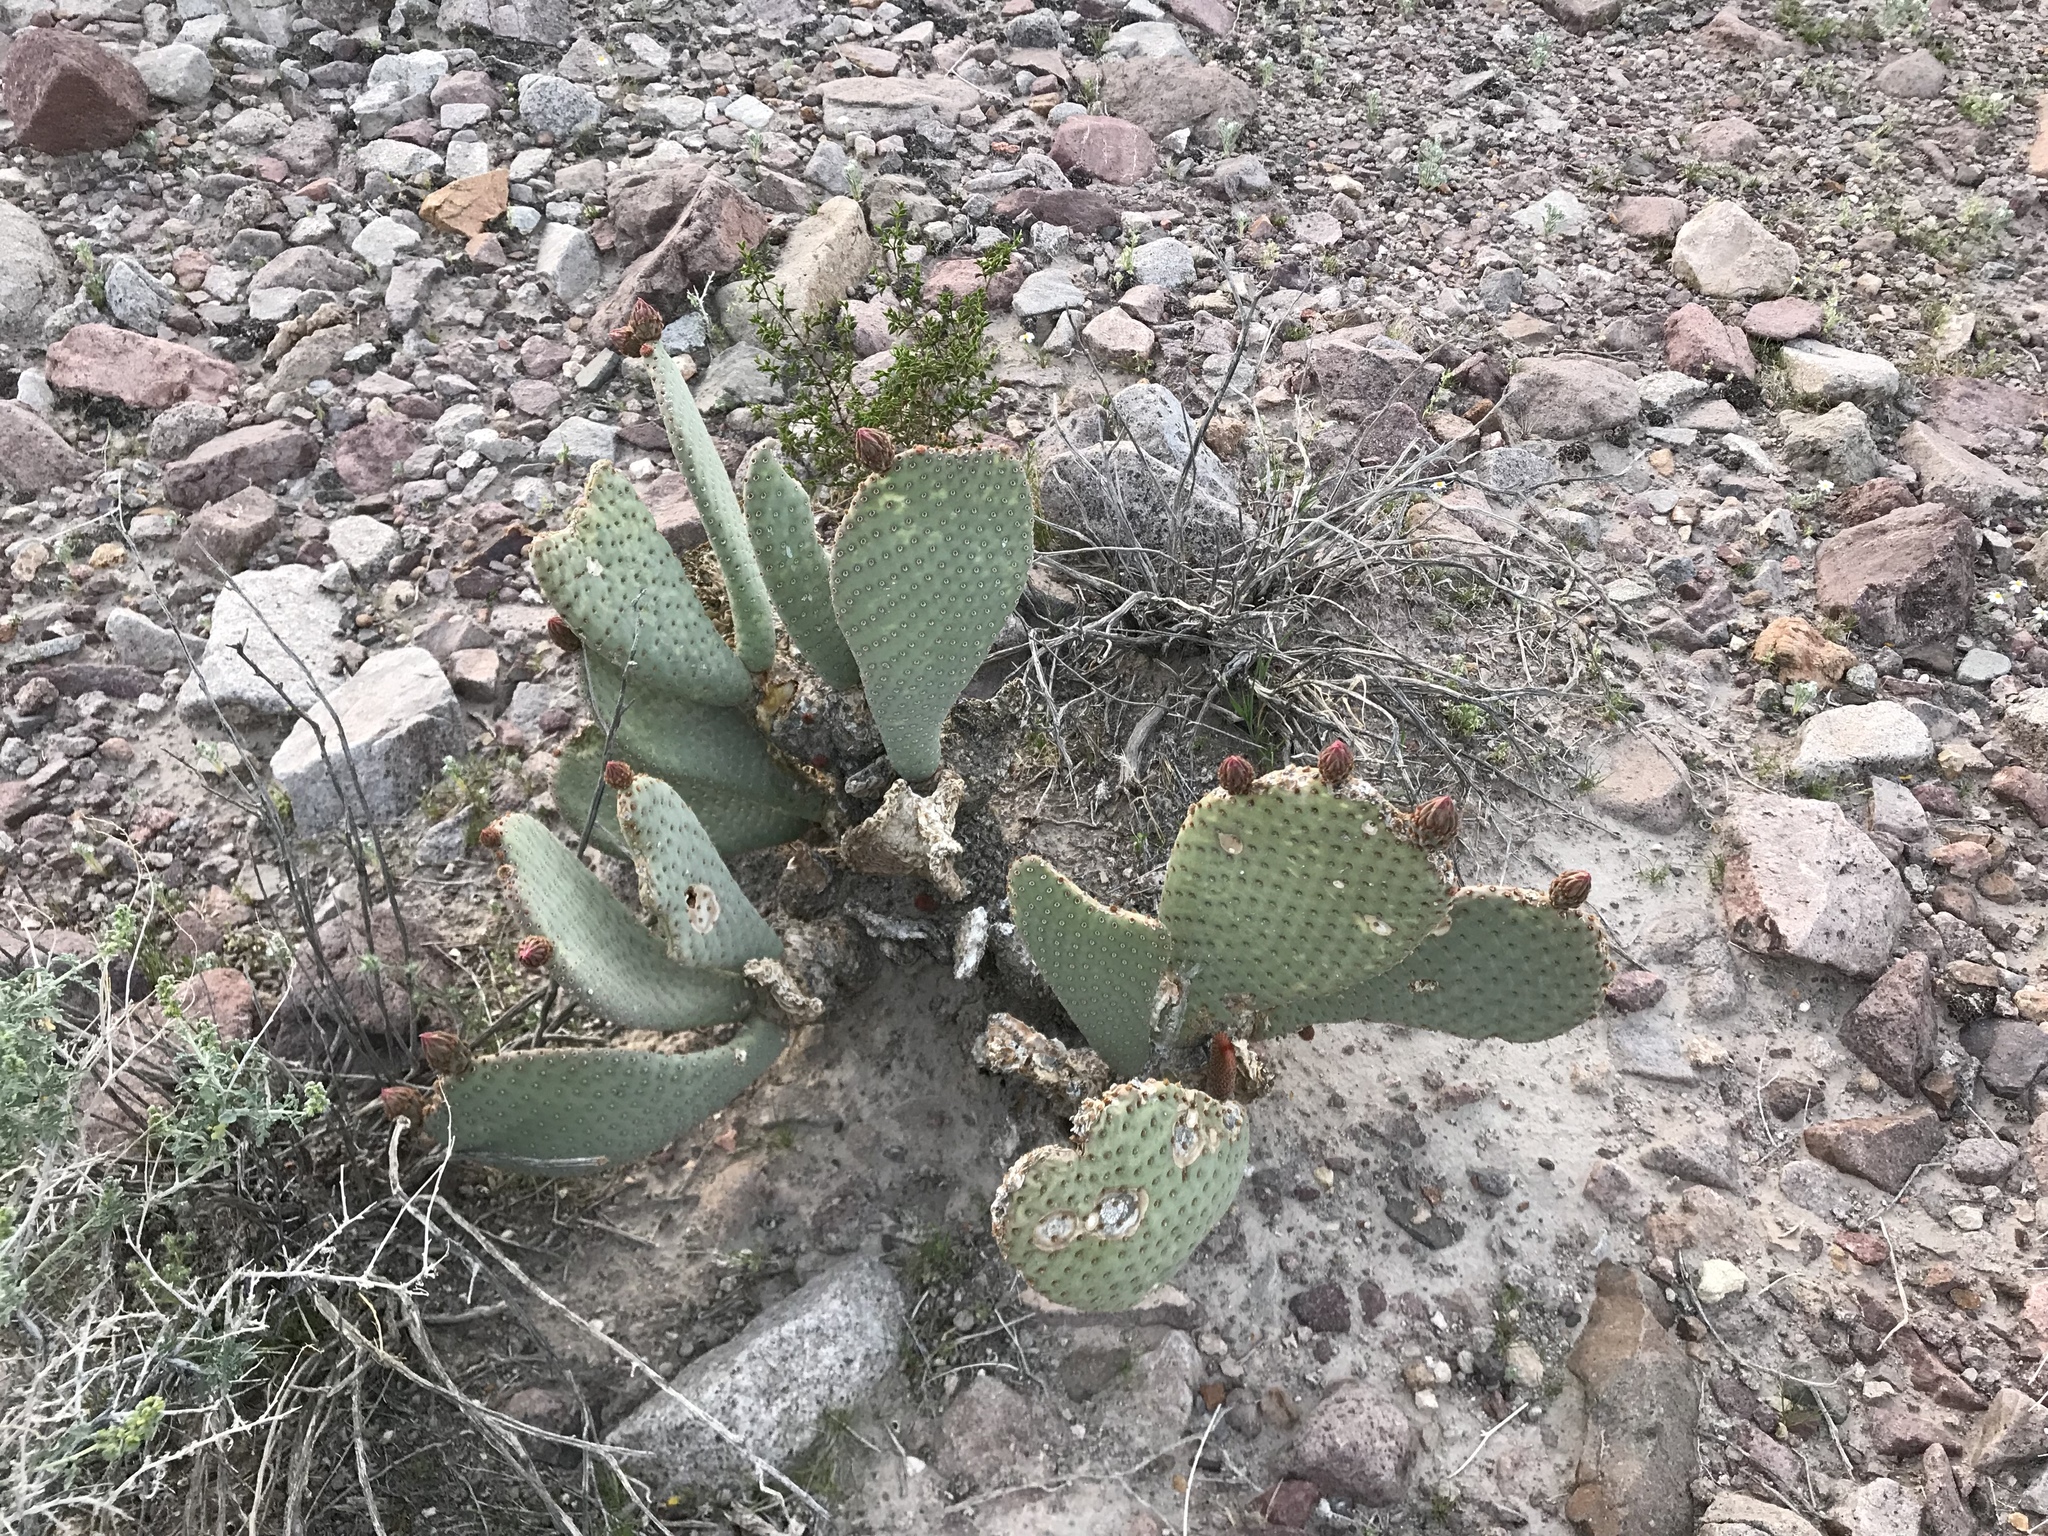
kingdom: Plantae
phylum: Tracheophyta
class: Magnoliopsida
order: Caryophyllales
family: Cactaceae
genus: Opuntia
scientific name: Opuntia basilaris
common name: Beavertail prickly-pear
